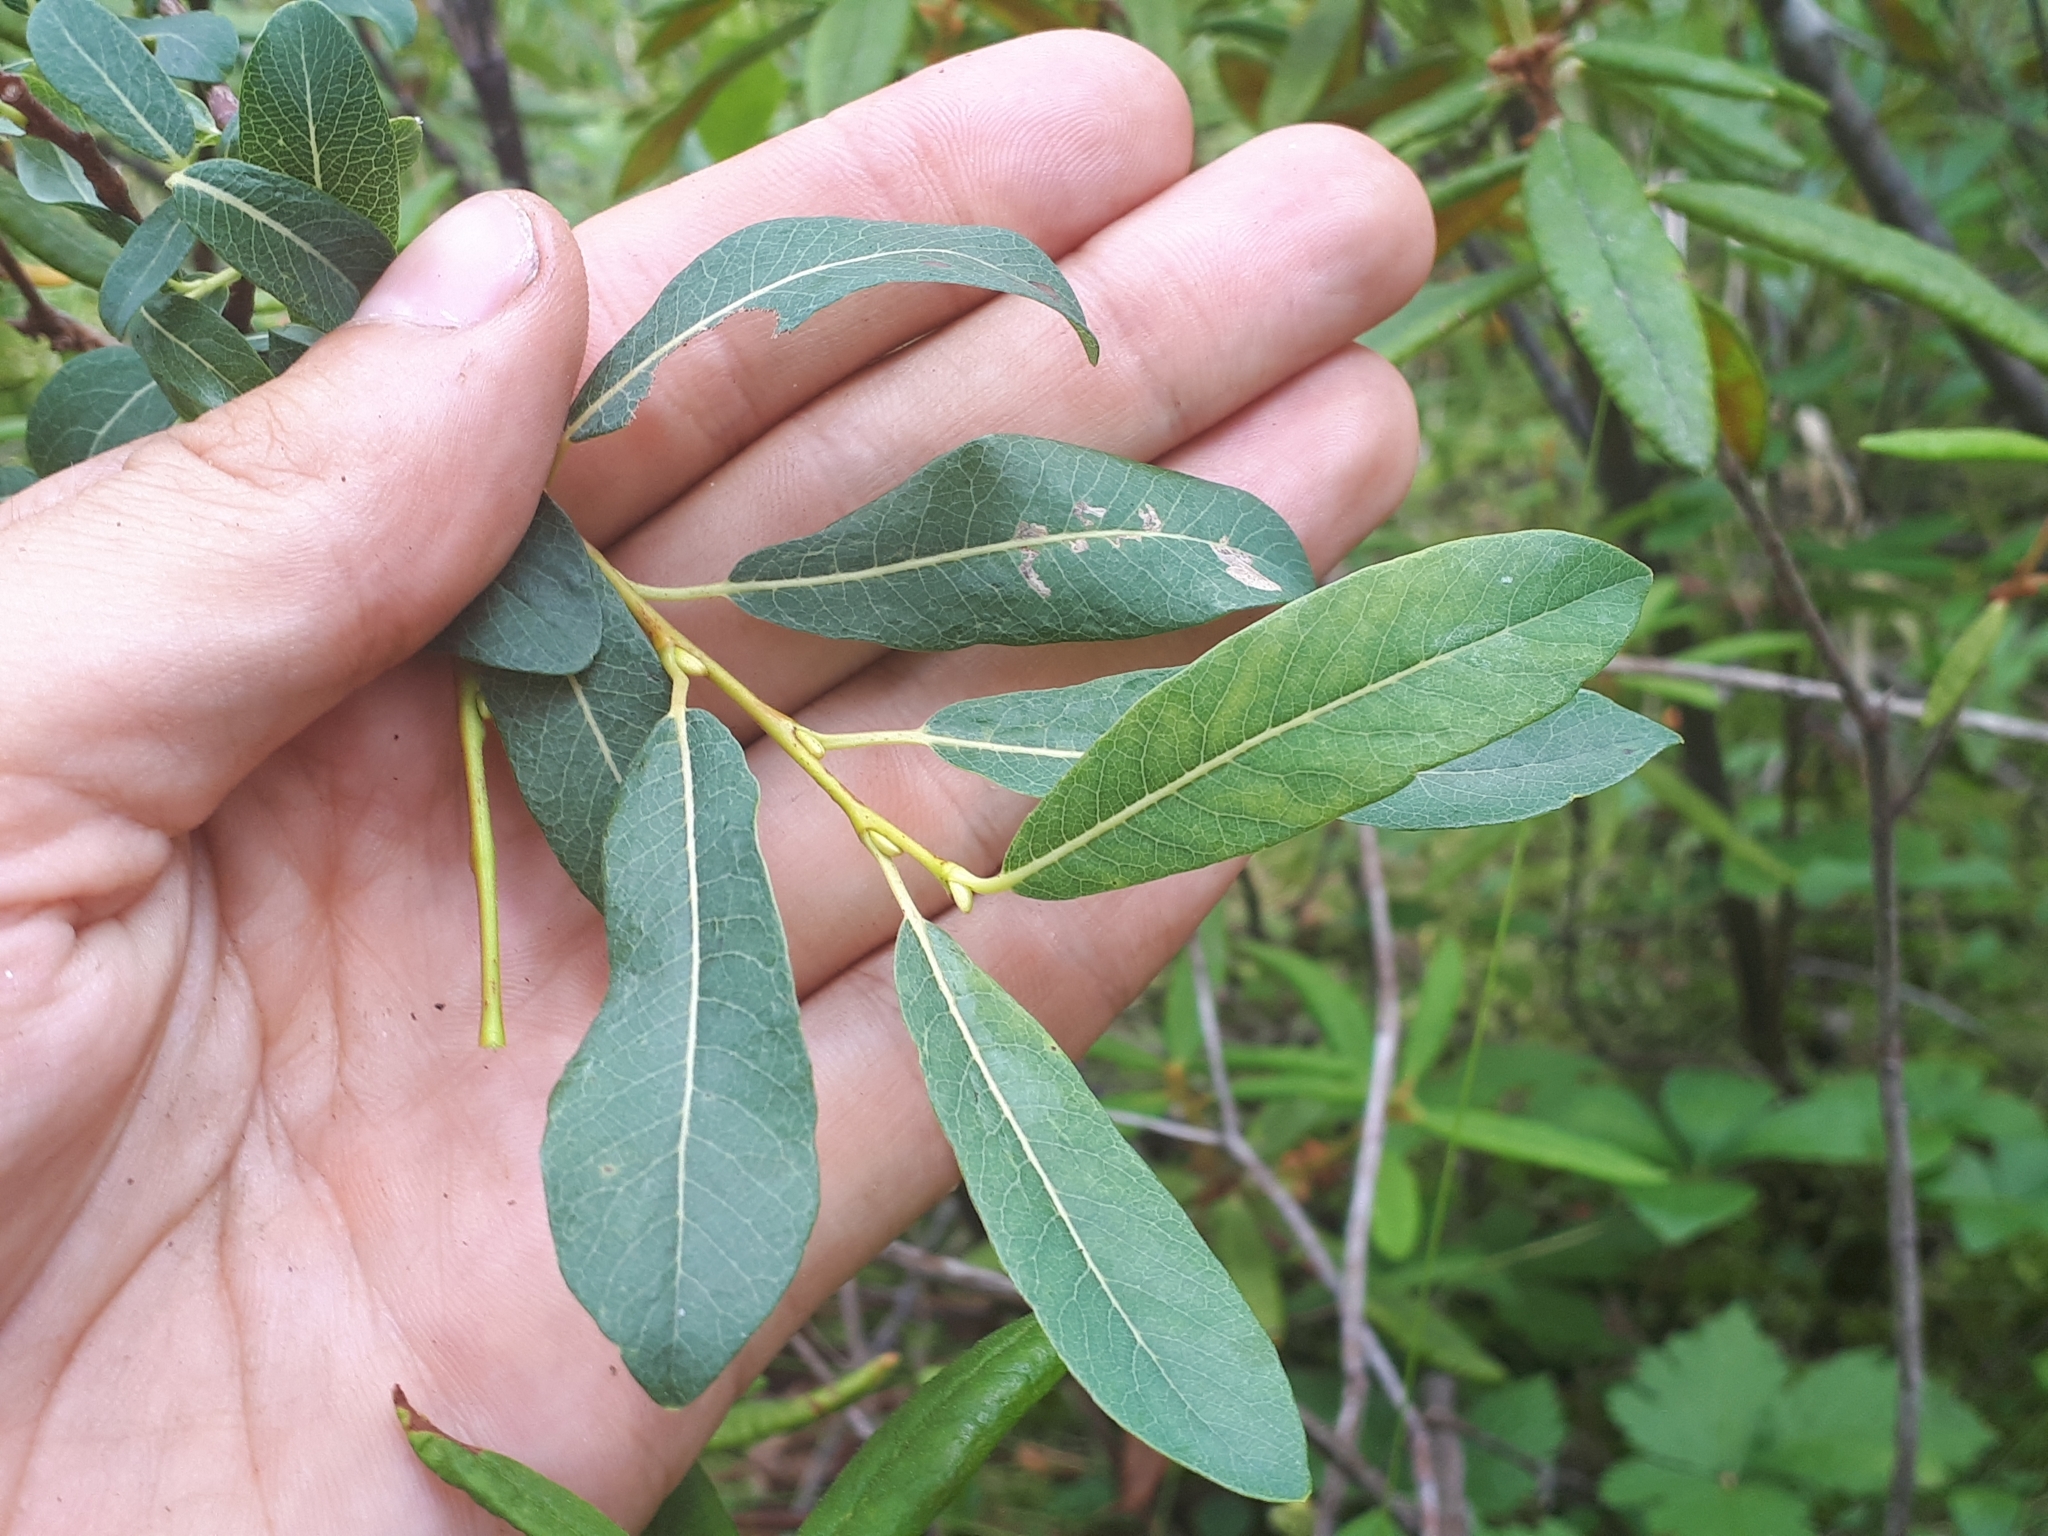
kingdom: Plantae
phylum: Tracheophyta
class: Magnoliopsida
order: Malpighiales
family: Salicaceae
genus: Salix
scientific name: Salix pedicellaris
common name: Bog willow
